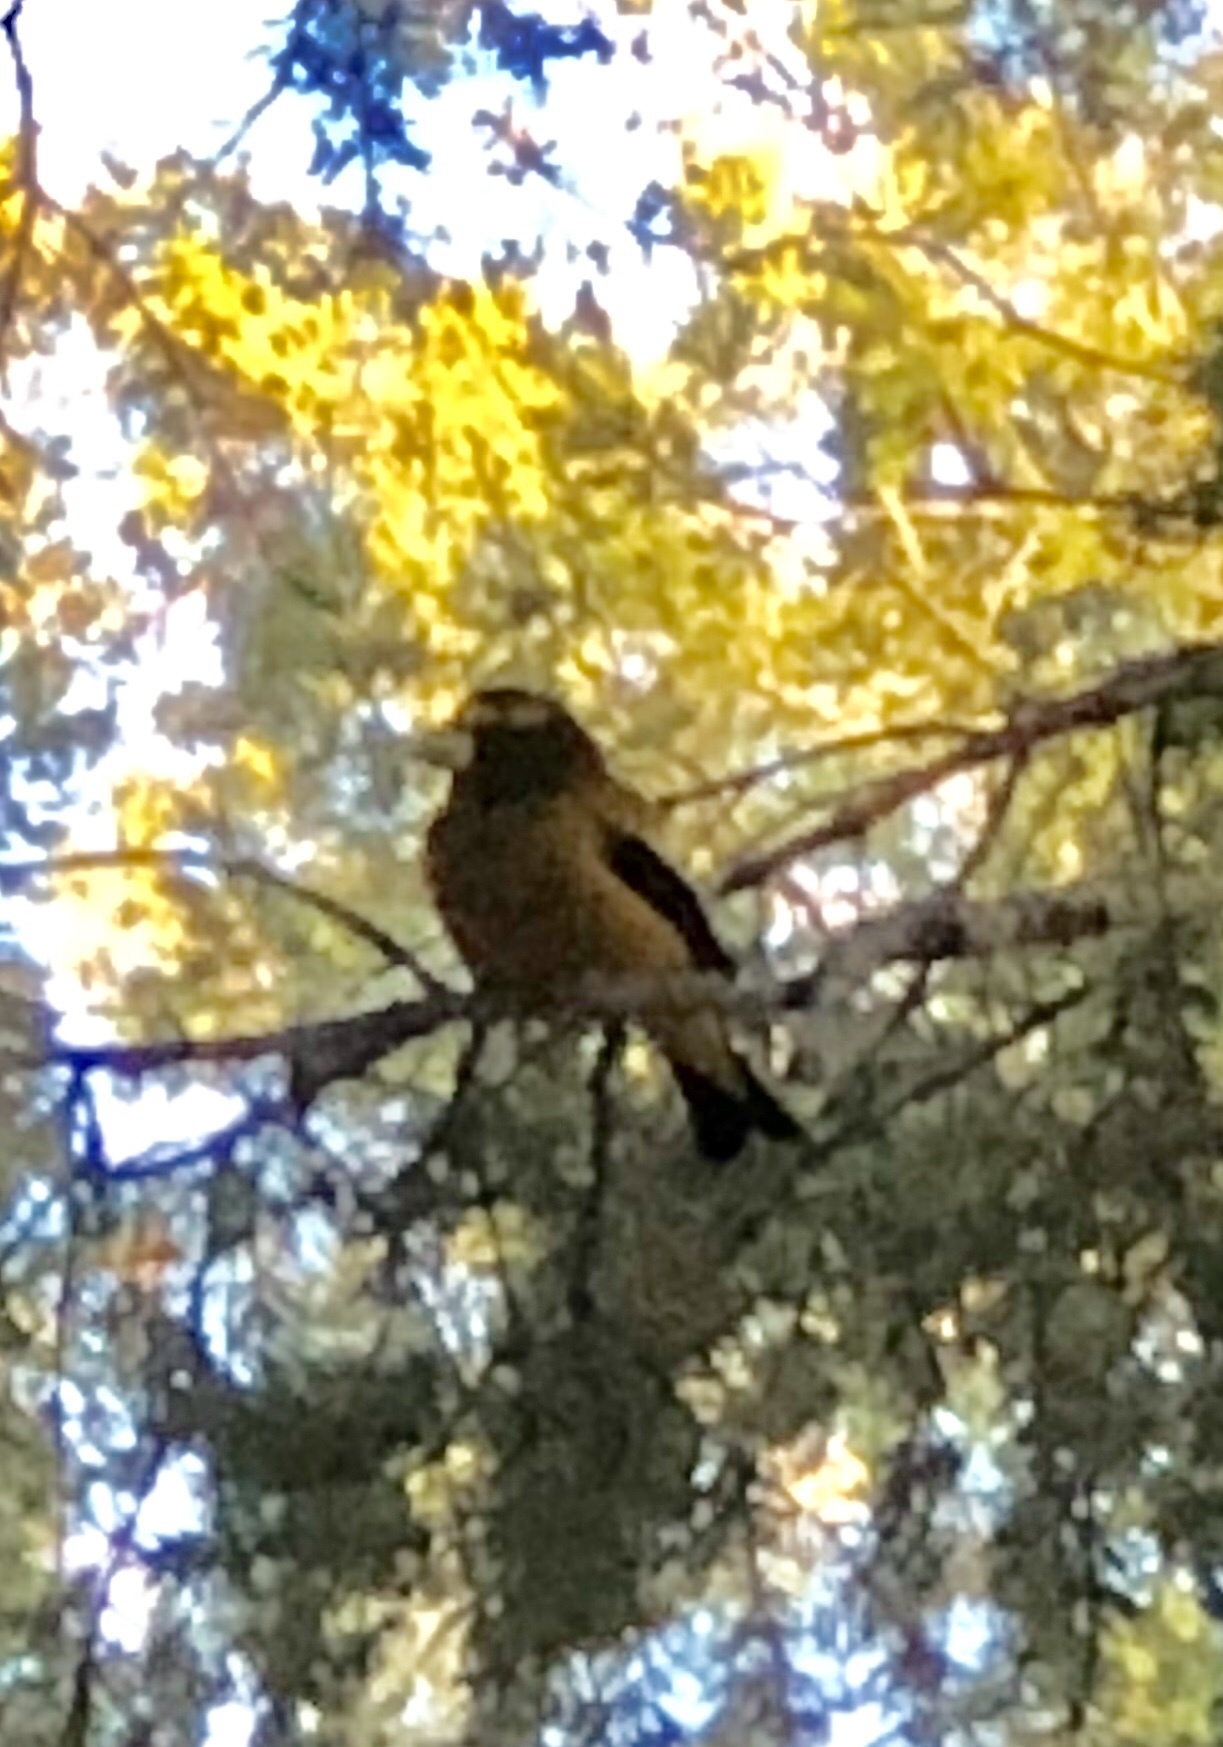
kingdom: Animalia
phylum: Chordata
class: Aves
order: Passeriformes
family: Fringillidae
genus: Hesperiphona
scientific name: Hesperiphona vespertina
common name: Evening grosbeak
